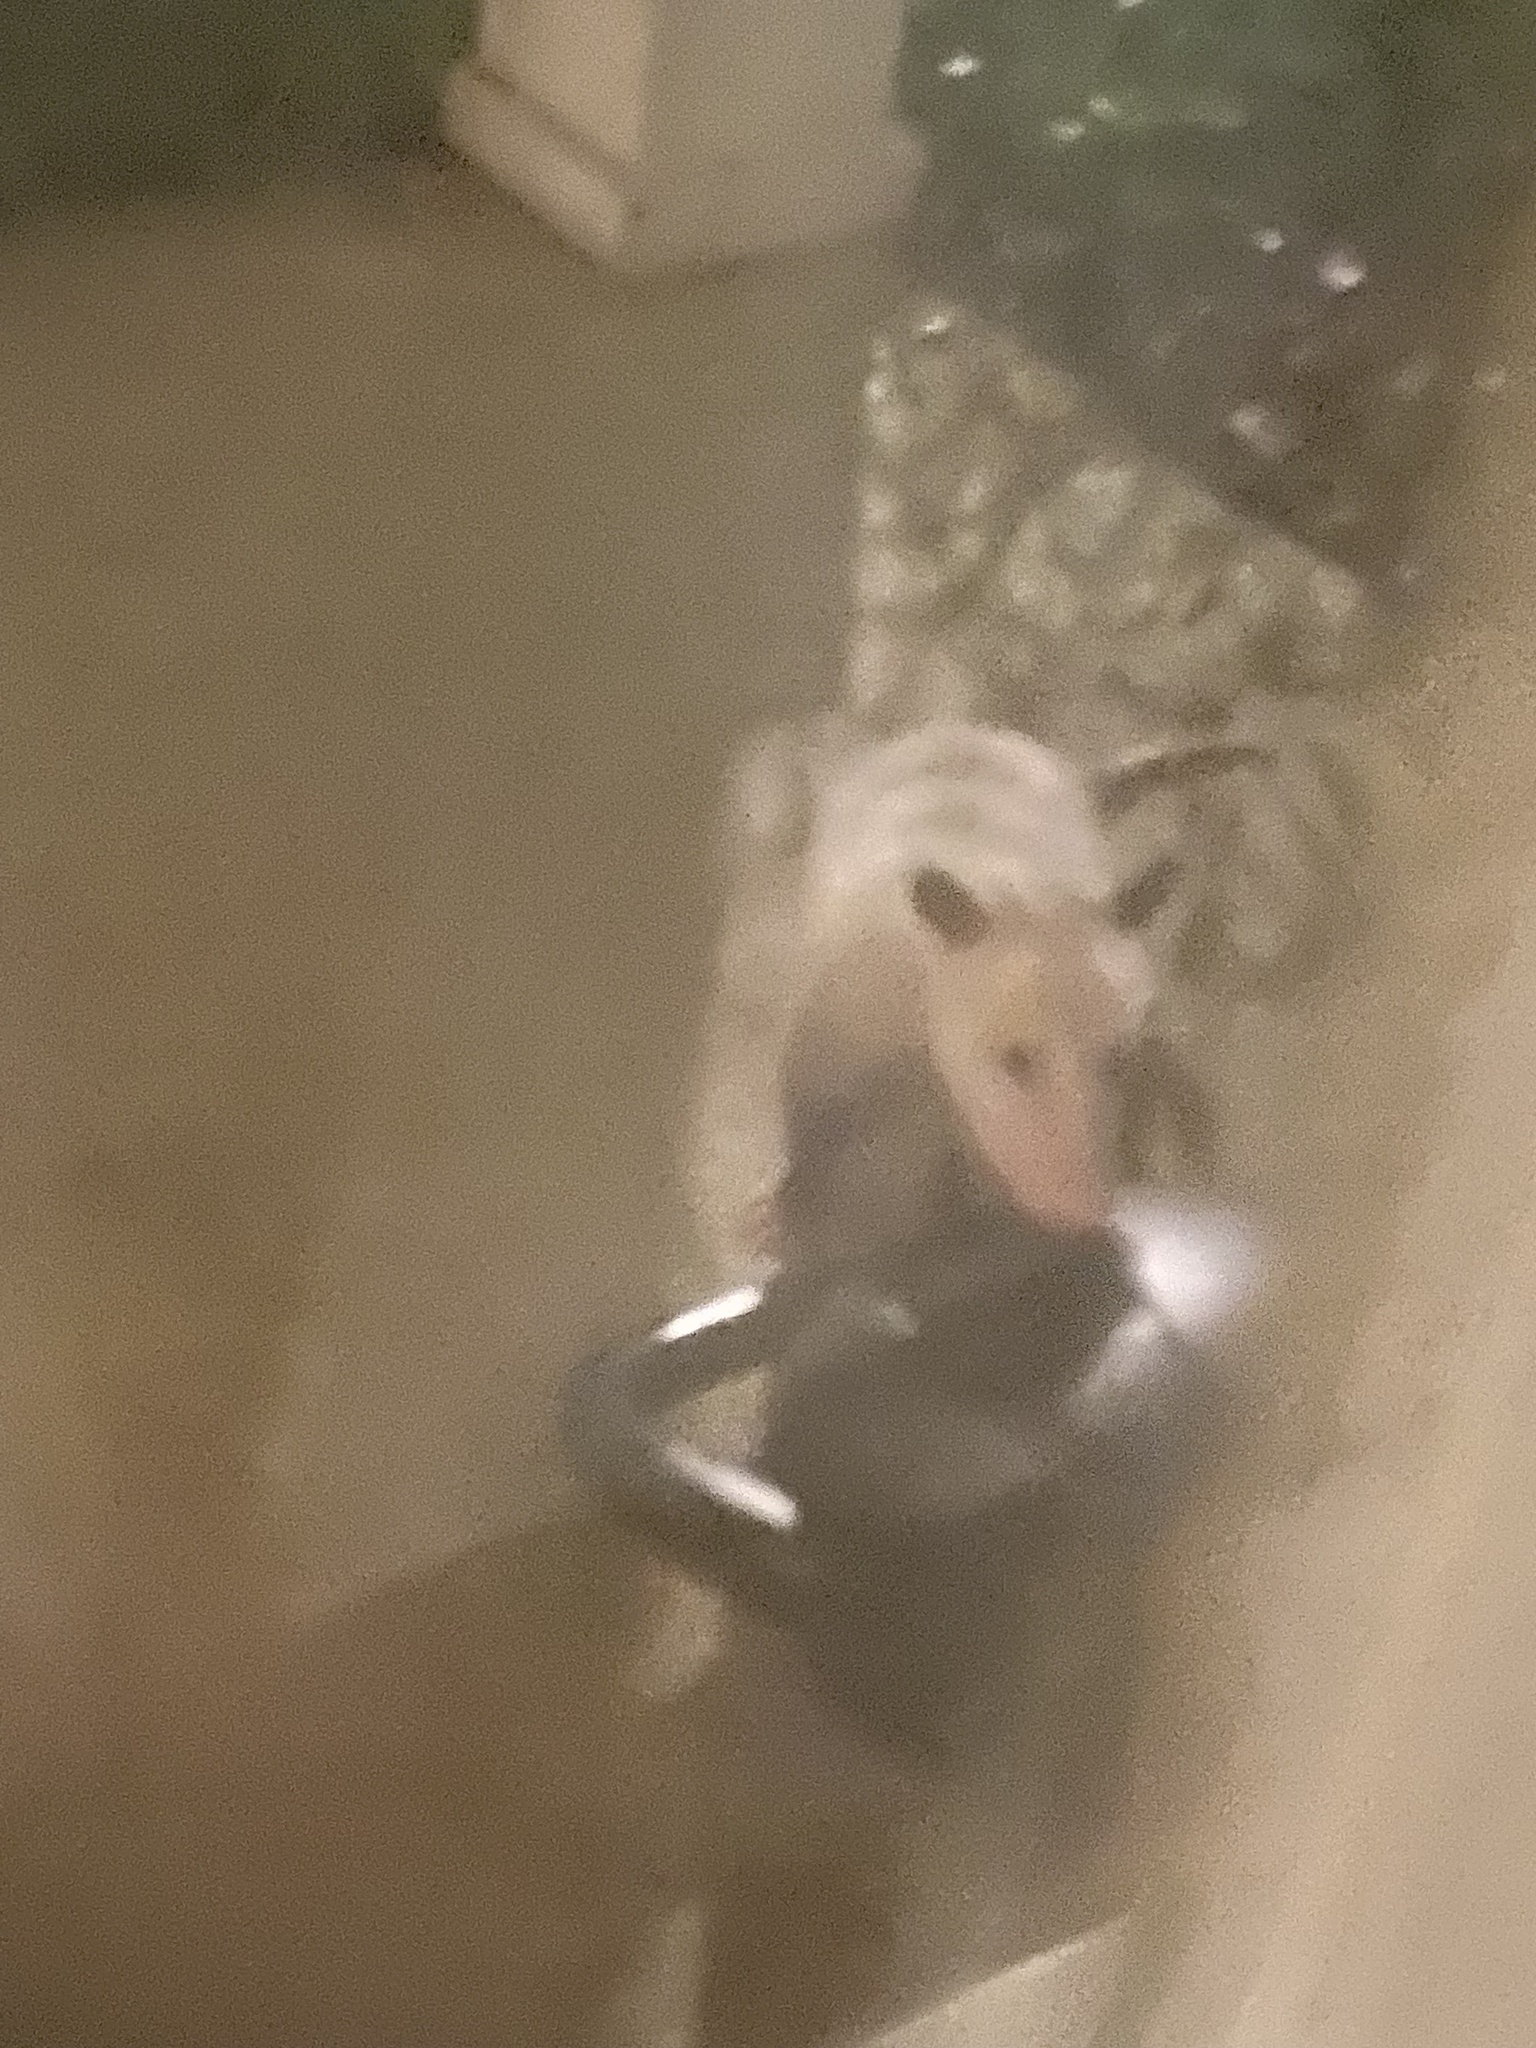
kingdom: Animalia
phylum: Chordata
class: Mammalia
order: Didelphimorphia
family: Didelphidae
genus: Didelphis
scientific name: Didelphis virginiana
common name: Virginia opossum
